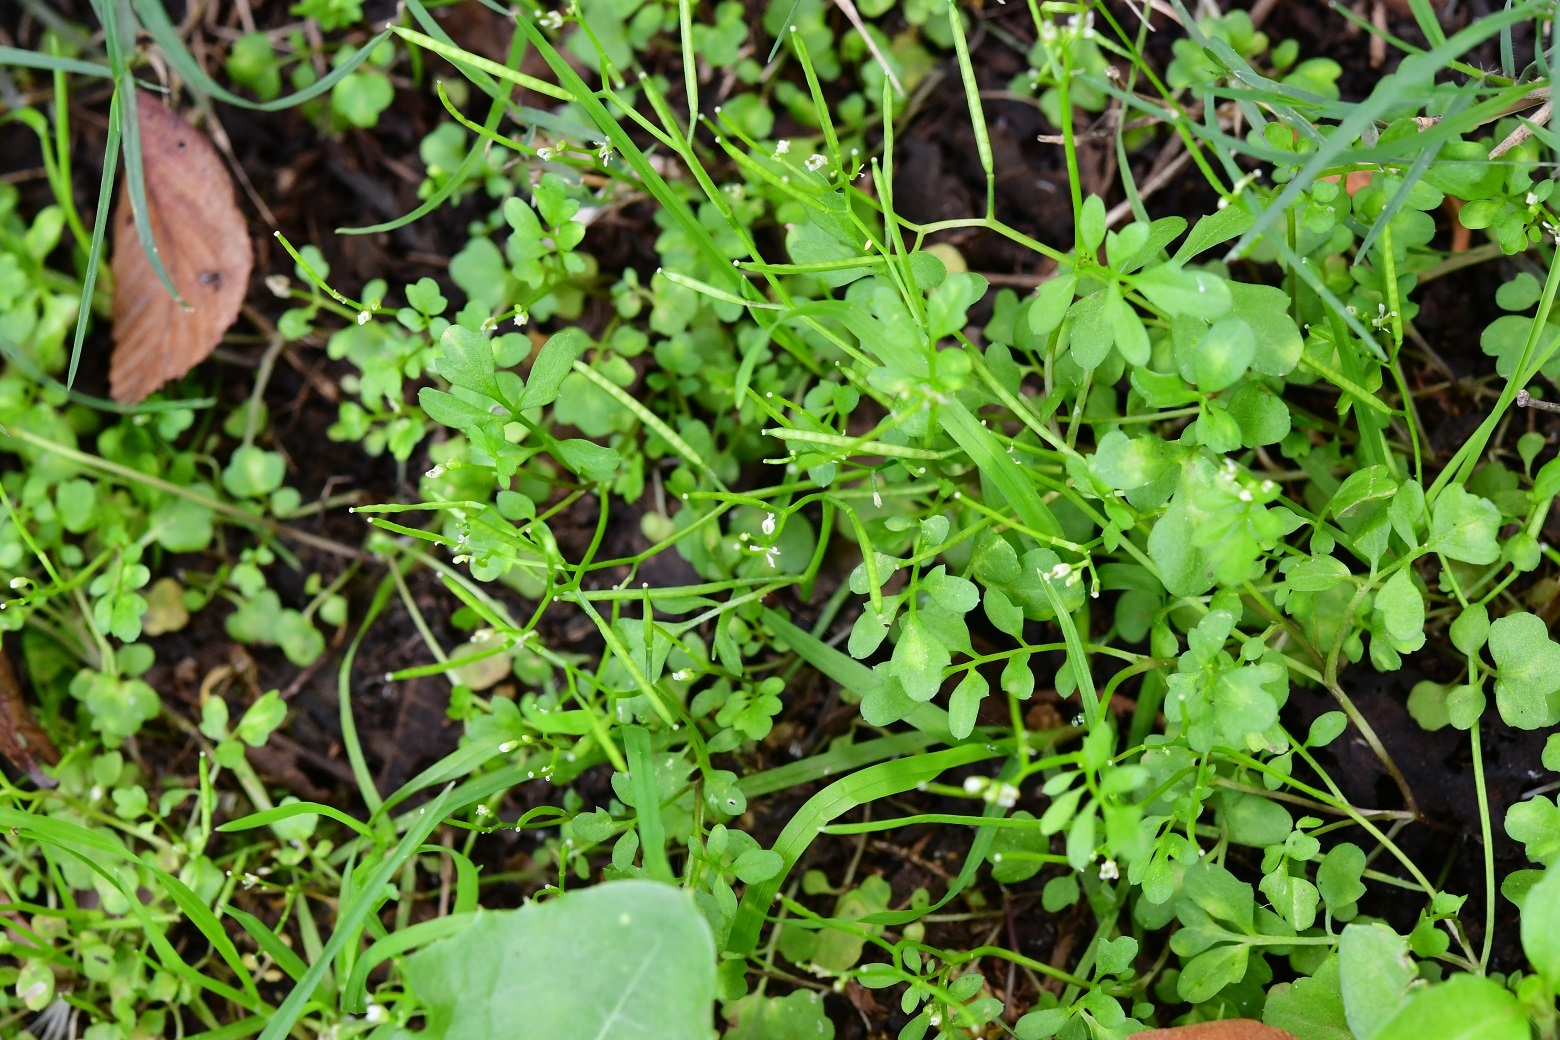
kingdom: Plantae
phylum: Tracheophyta
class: Magnoliopsida
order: Brassicales
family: Brassicaceae
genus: Cardamine
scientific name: Cardamine occulta
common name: Asian wavy bittercress
